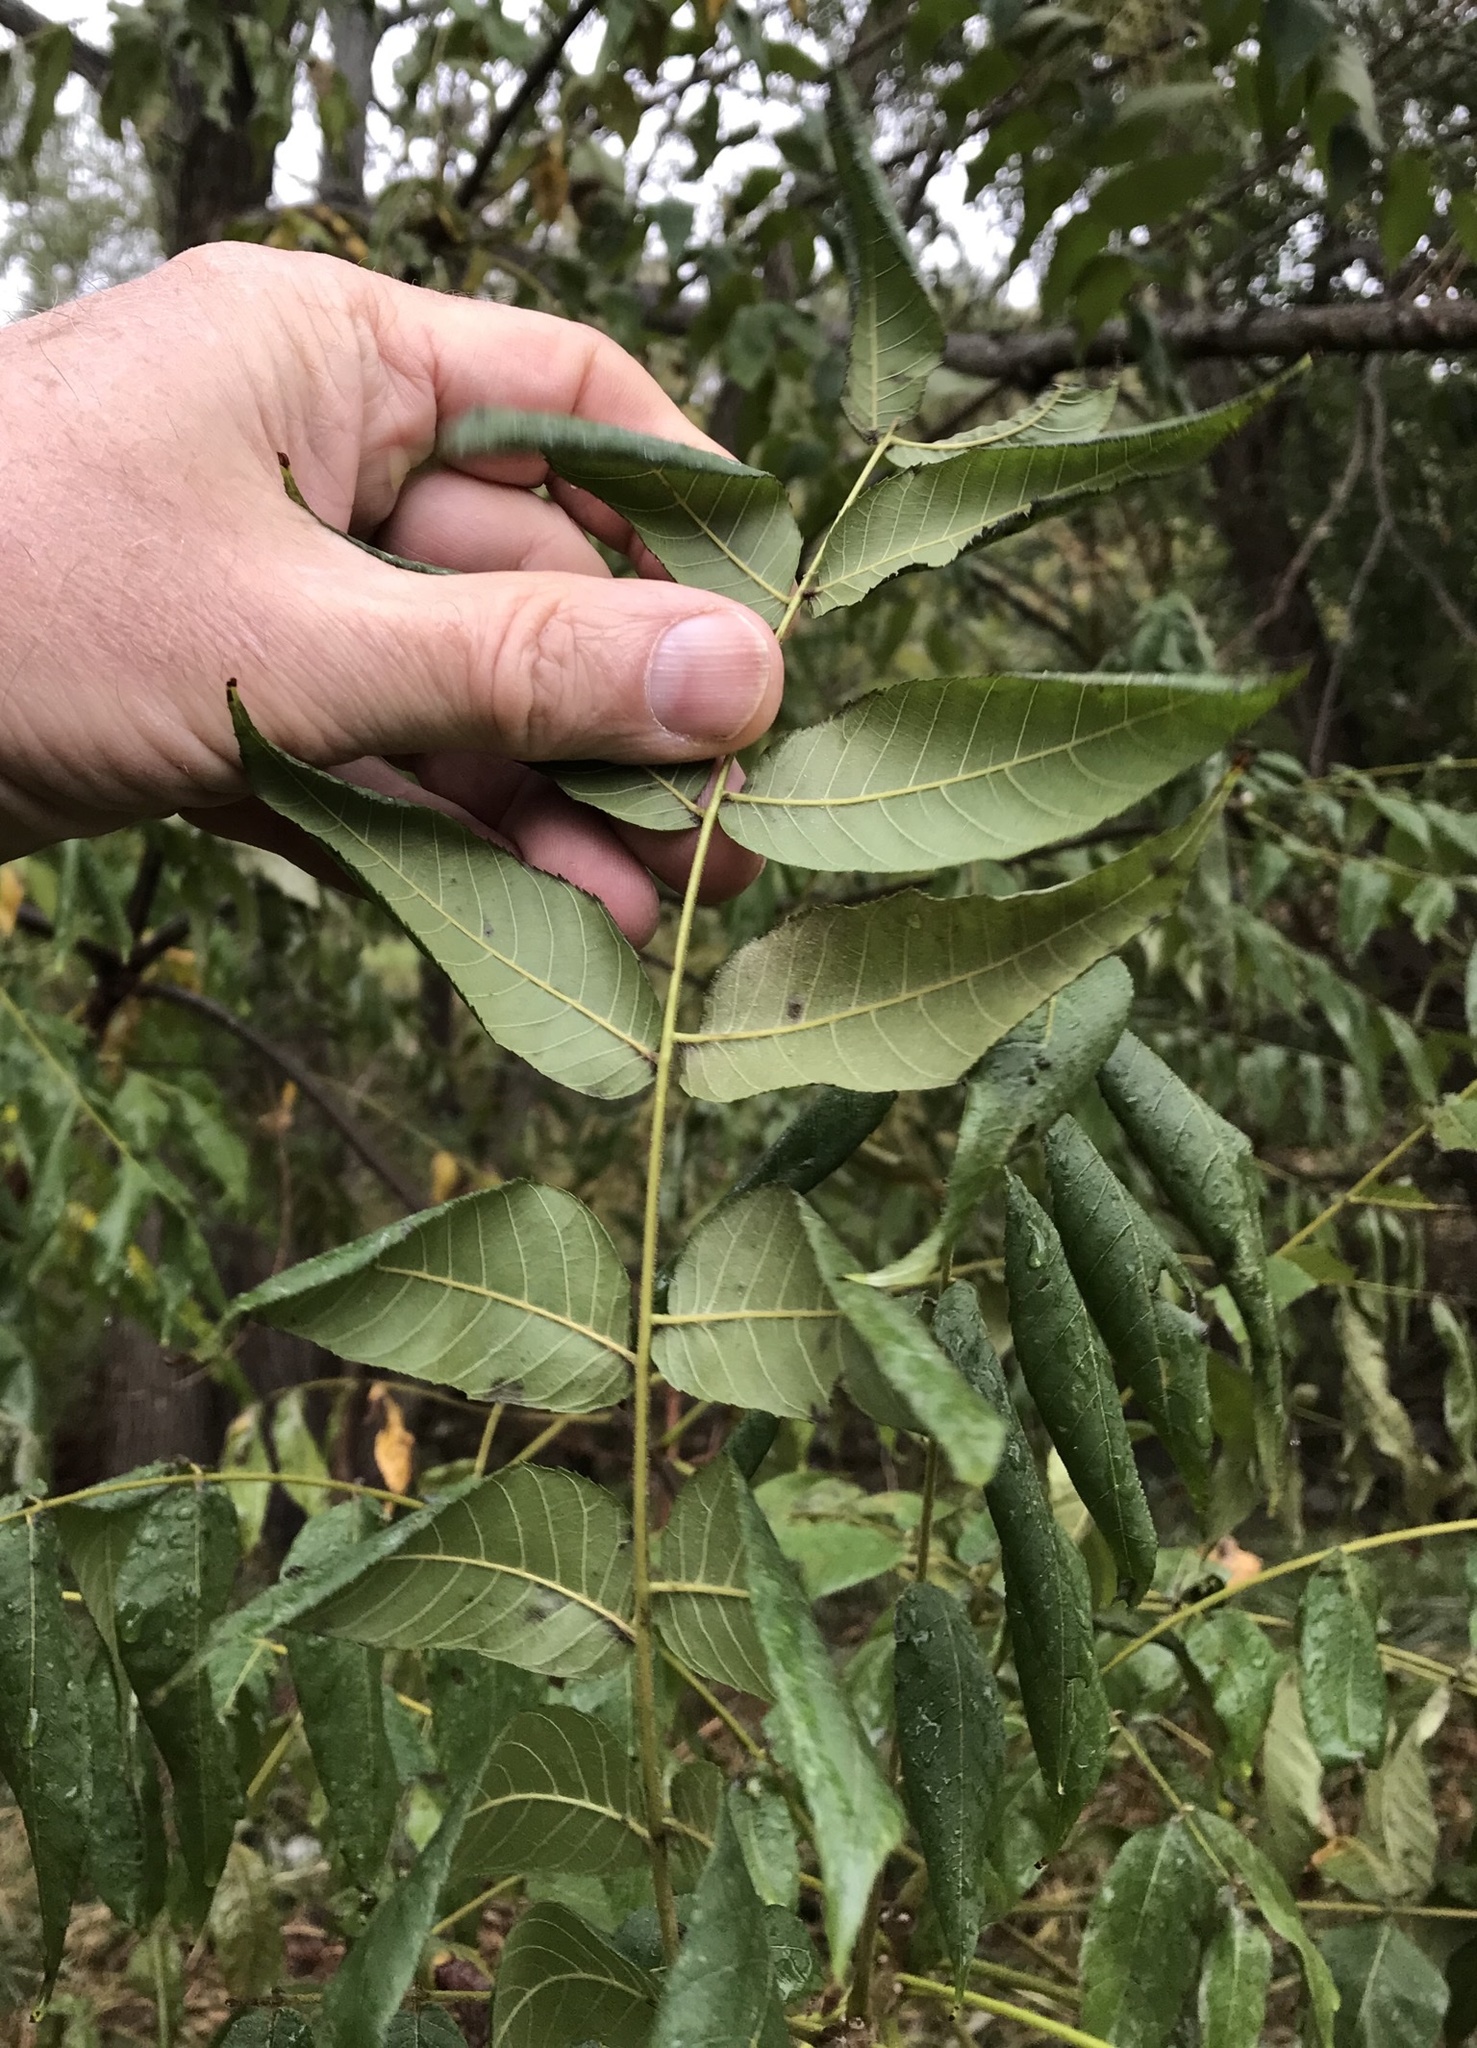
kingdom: Plantae
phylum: Tracheophyta
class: Magnoliopsida
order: Fagales
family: Juglandaceae
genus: Juglans
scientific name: Juglans nigra
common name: Black walnut
